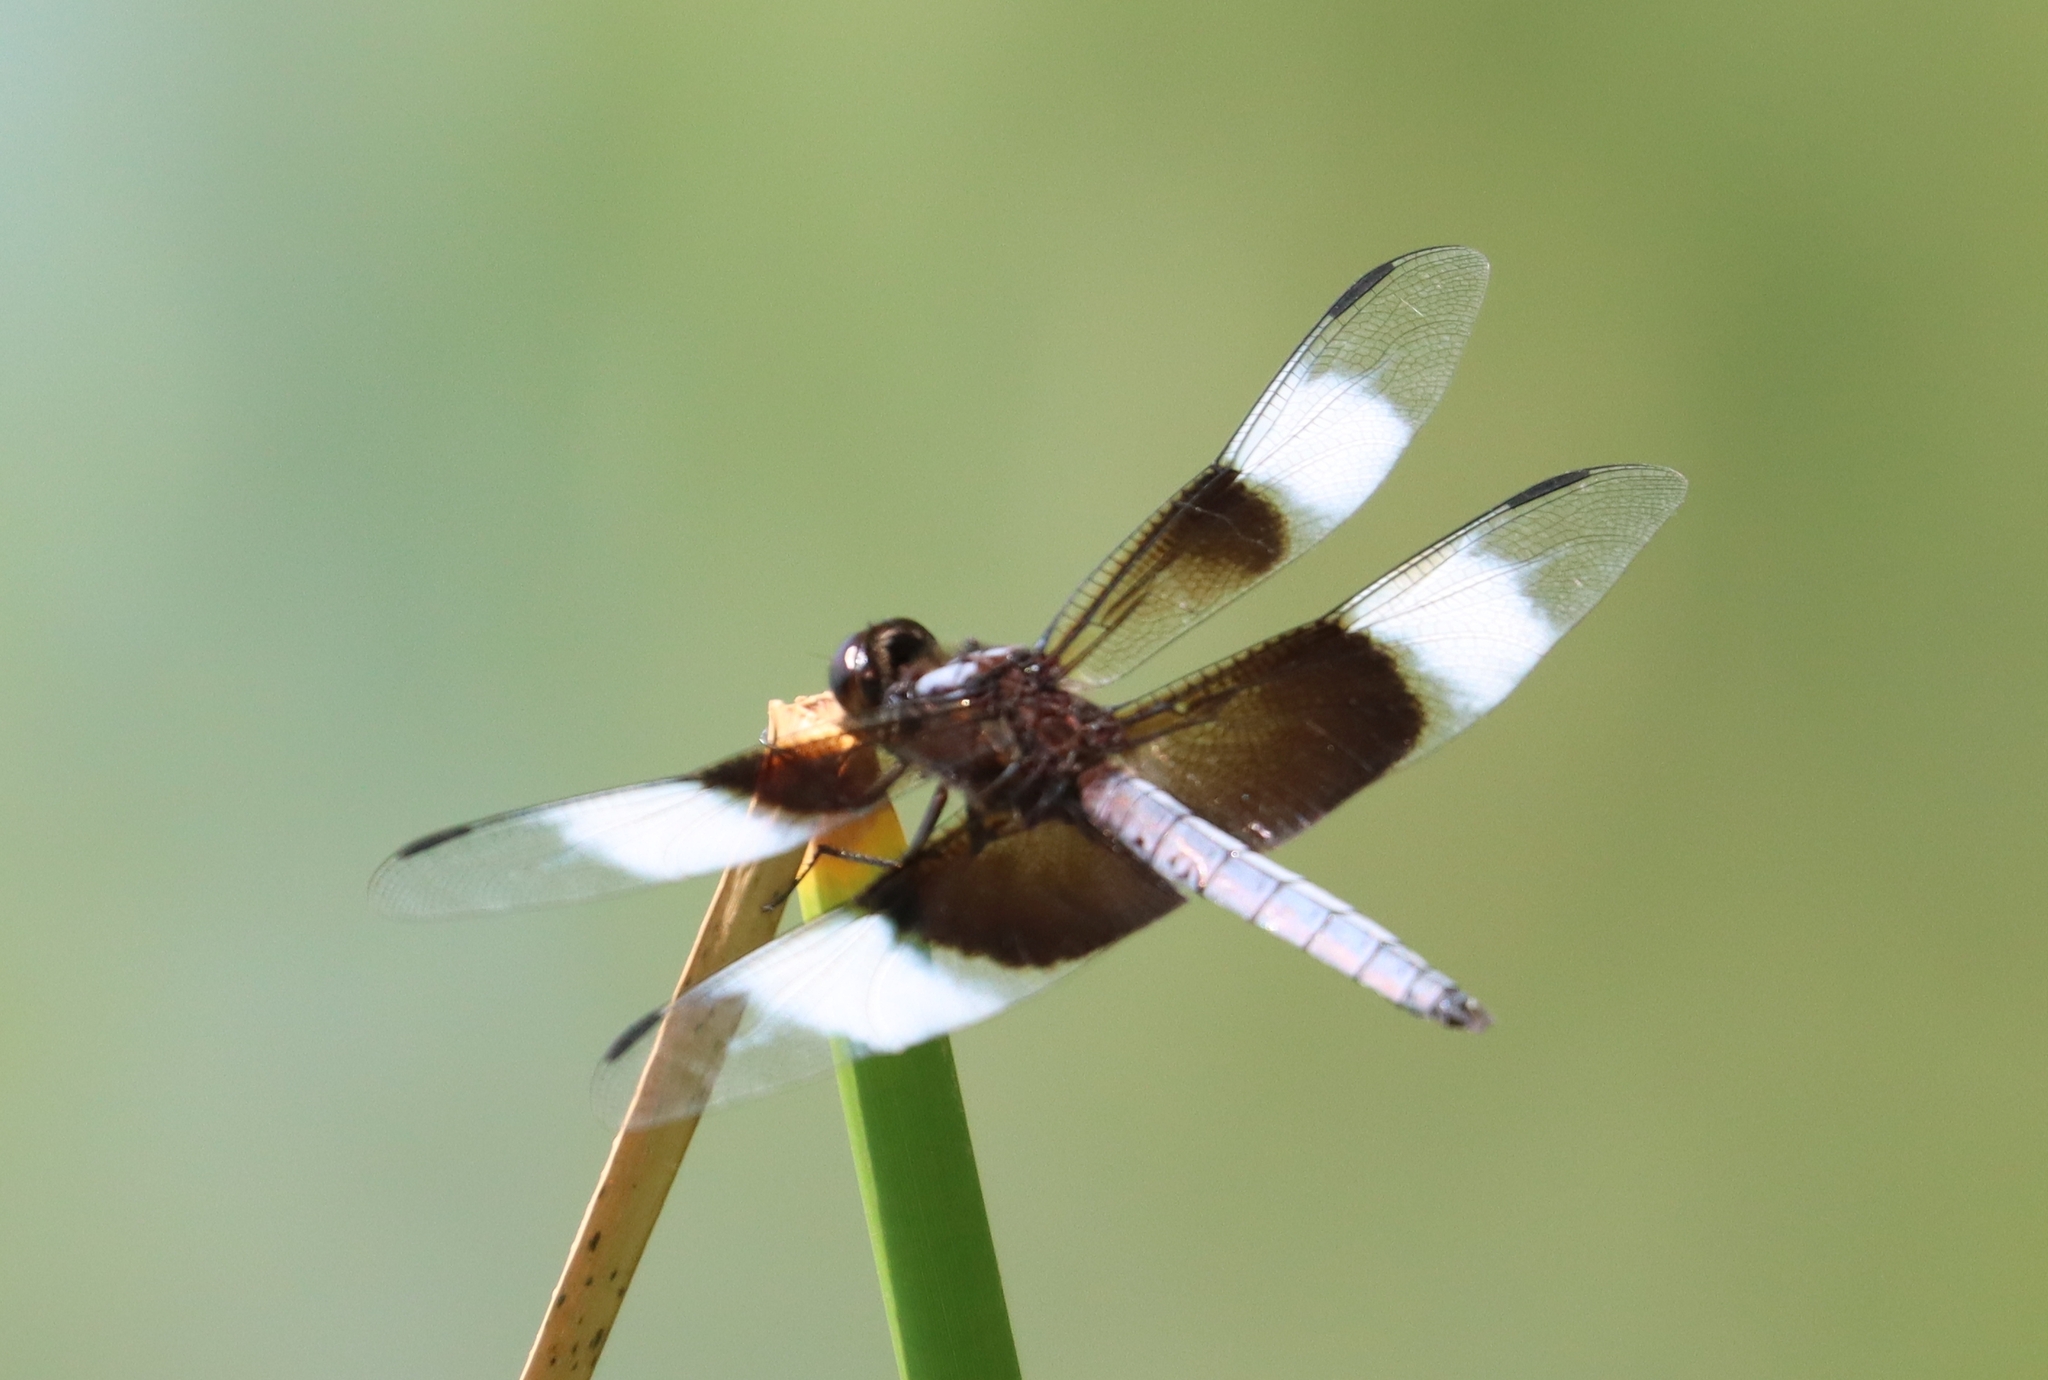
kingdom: Animalia
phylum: Arthropoda
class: Insecta
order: Odonata
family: Libellulidae
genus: Libellula
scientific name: Libellula luctuosa
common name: Widow skimmer
